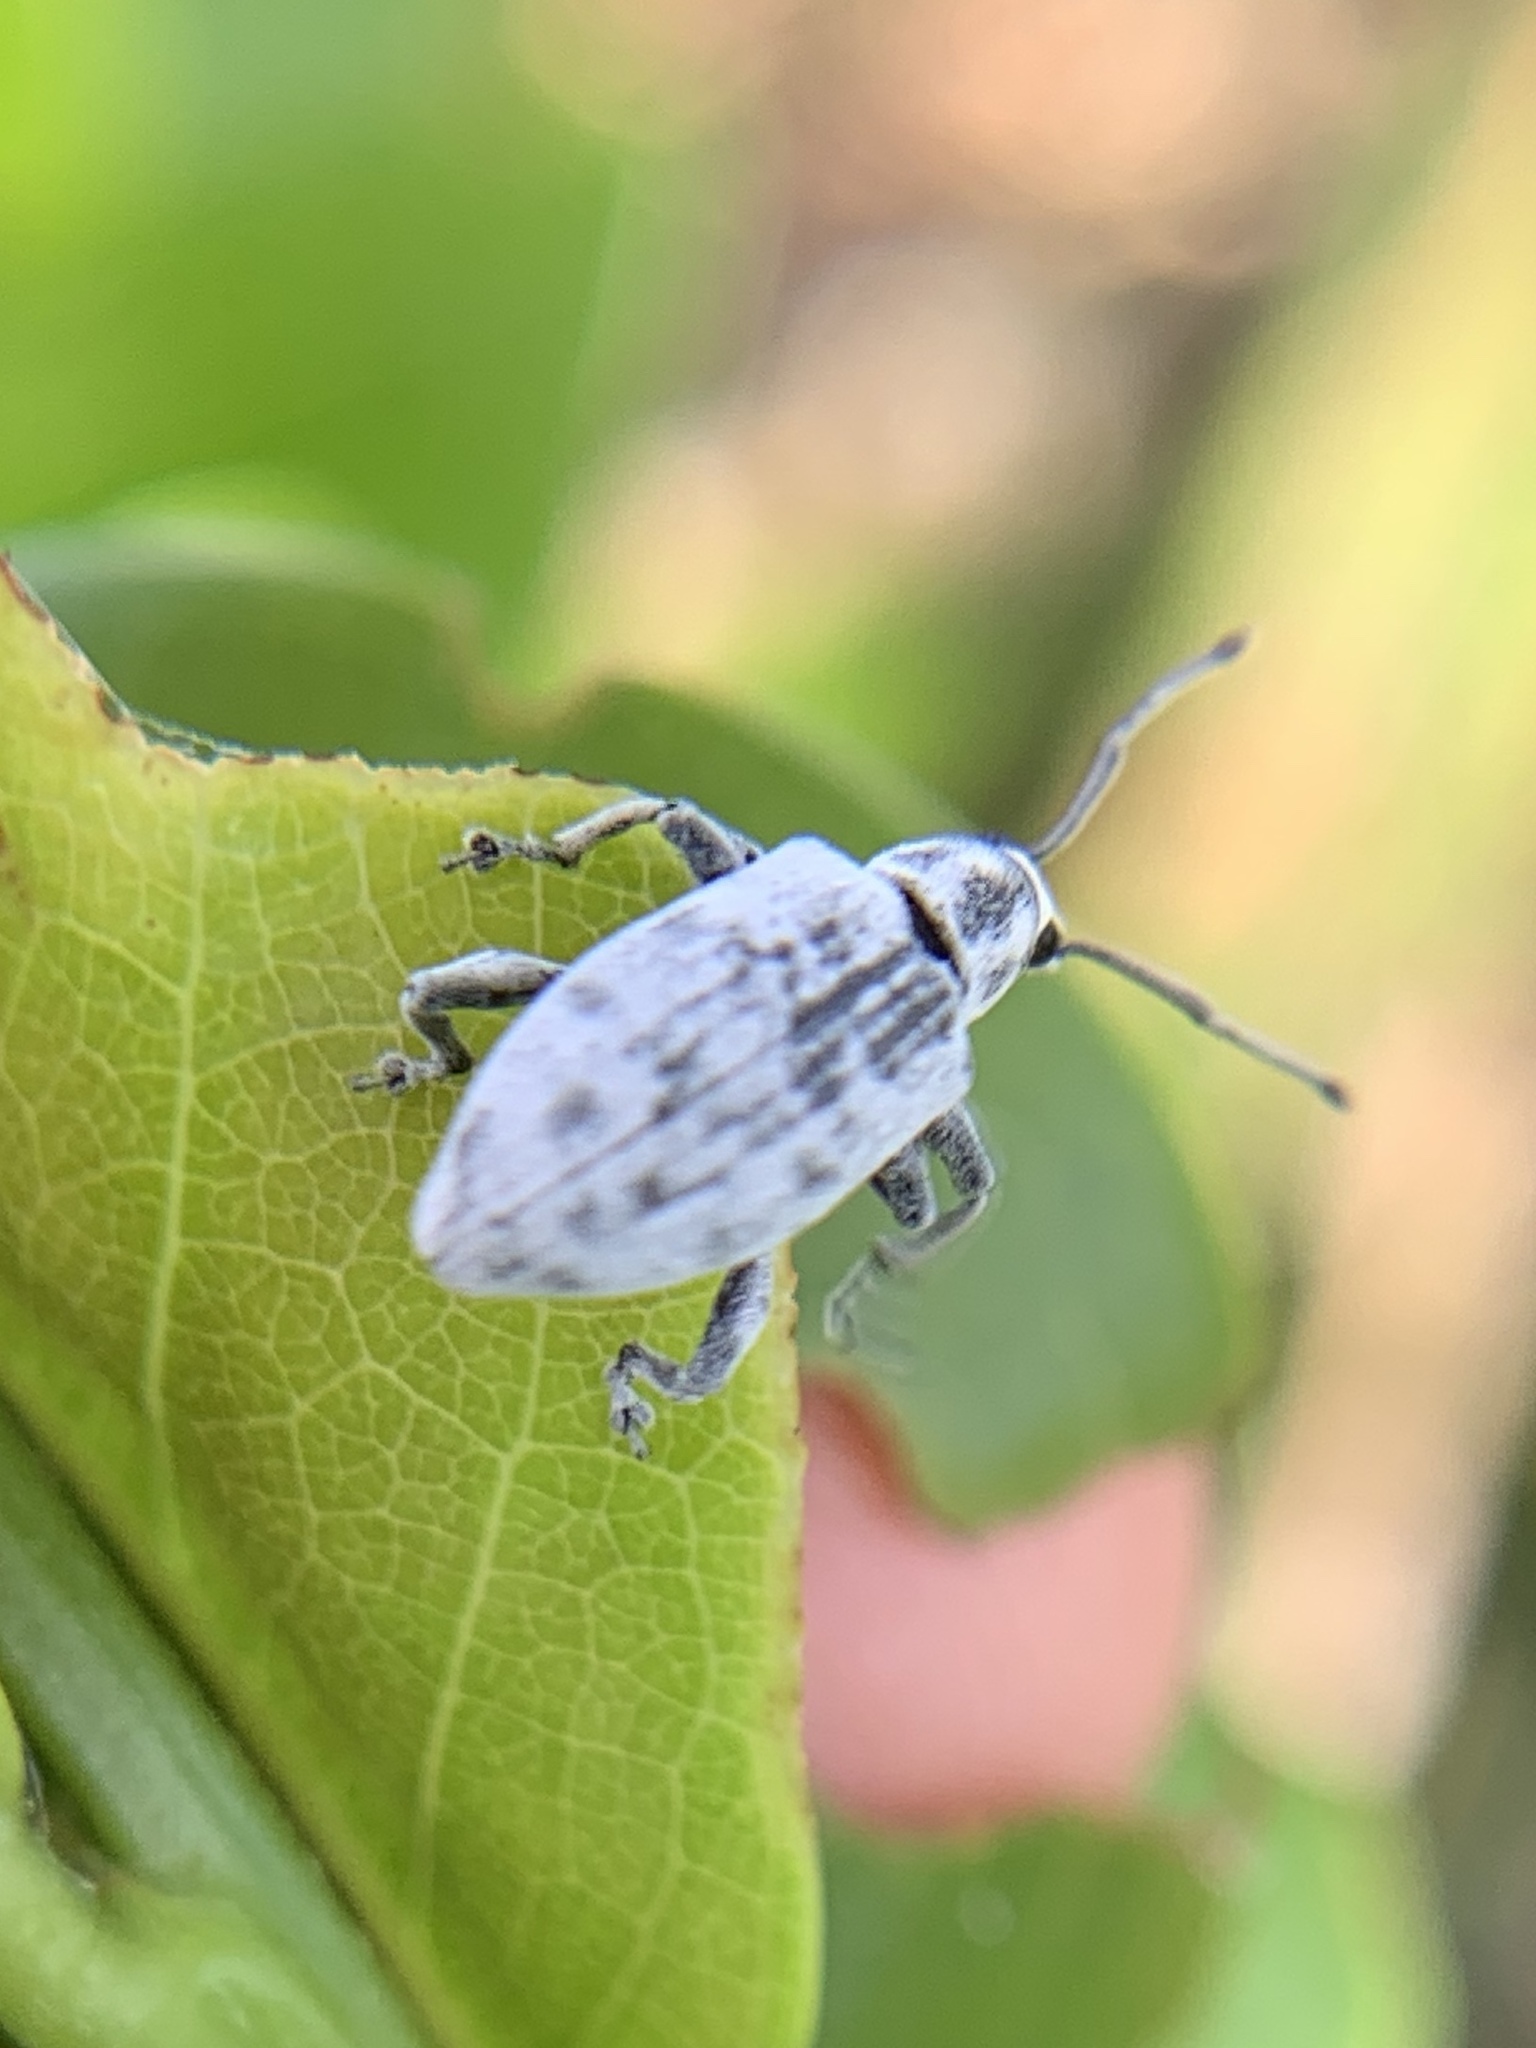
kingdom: Animalia
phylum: Arthropoda
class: Insecta
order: Coleoptera
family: Curculionidae
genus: Myllocerus
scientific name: Myllocerus undecimpustulatus
